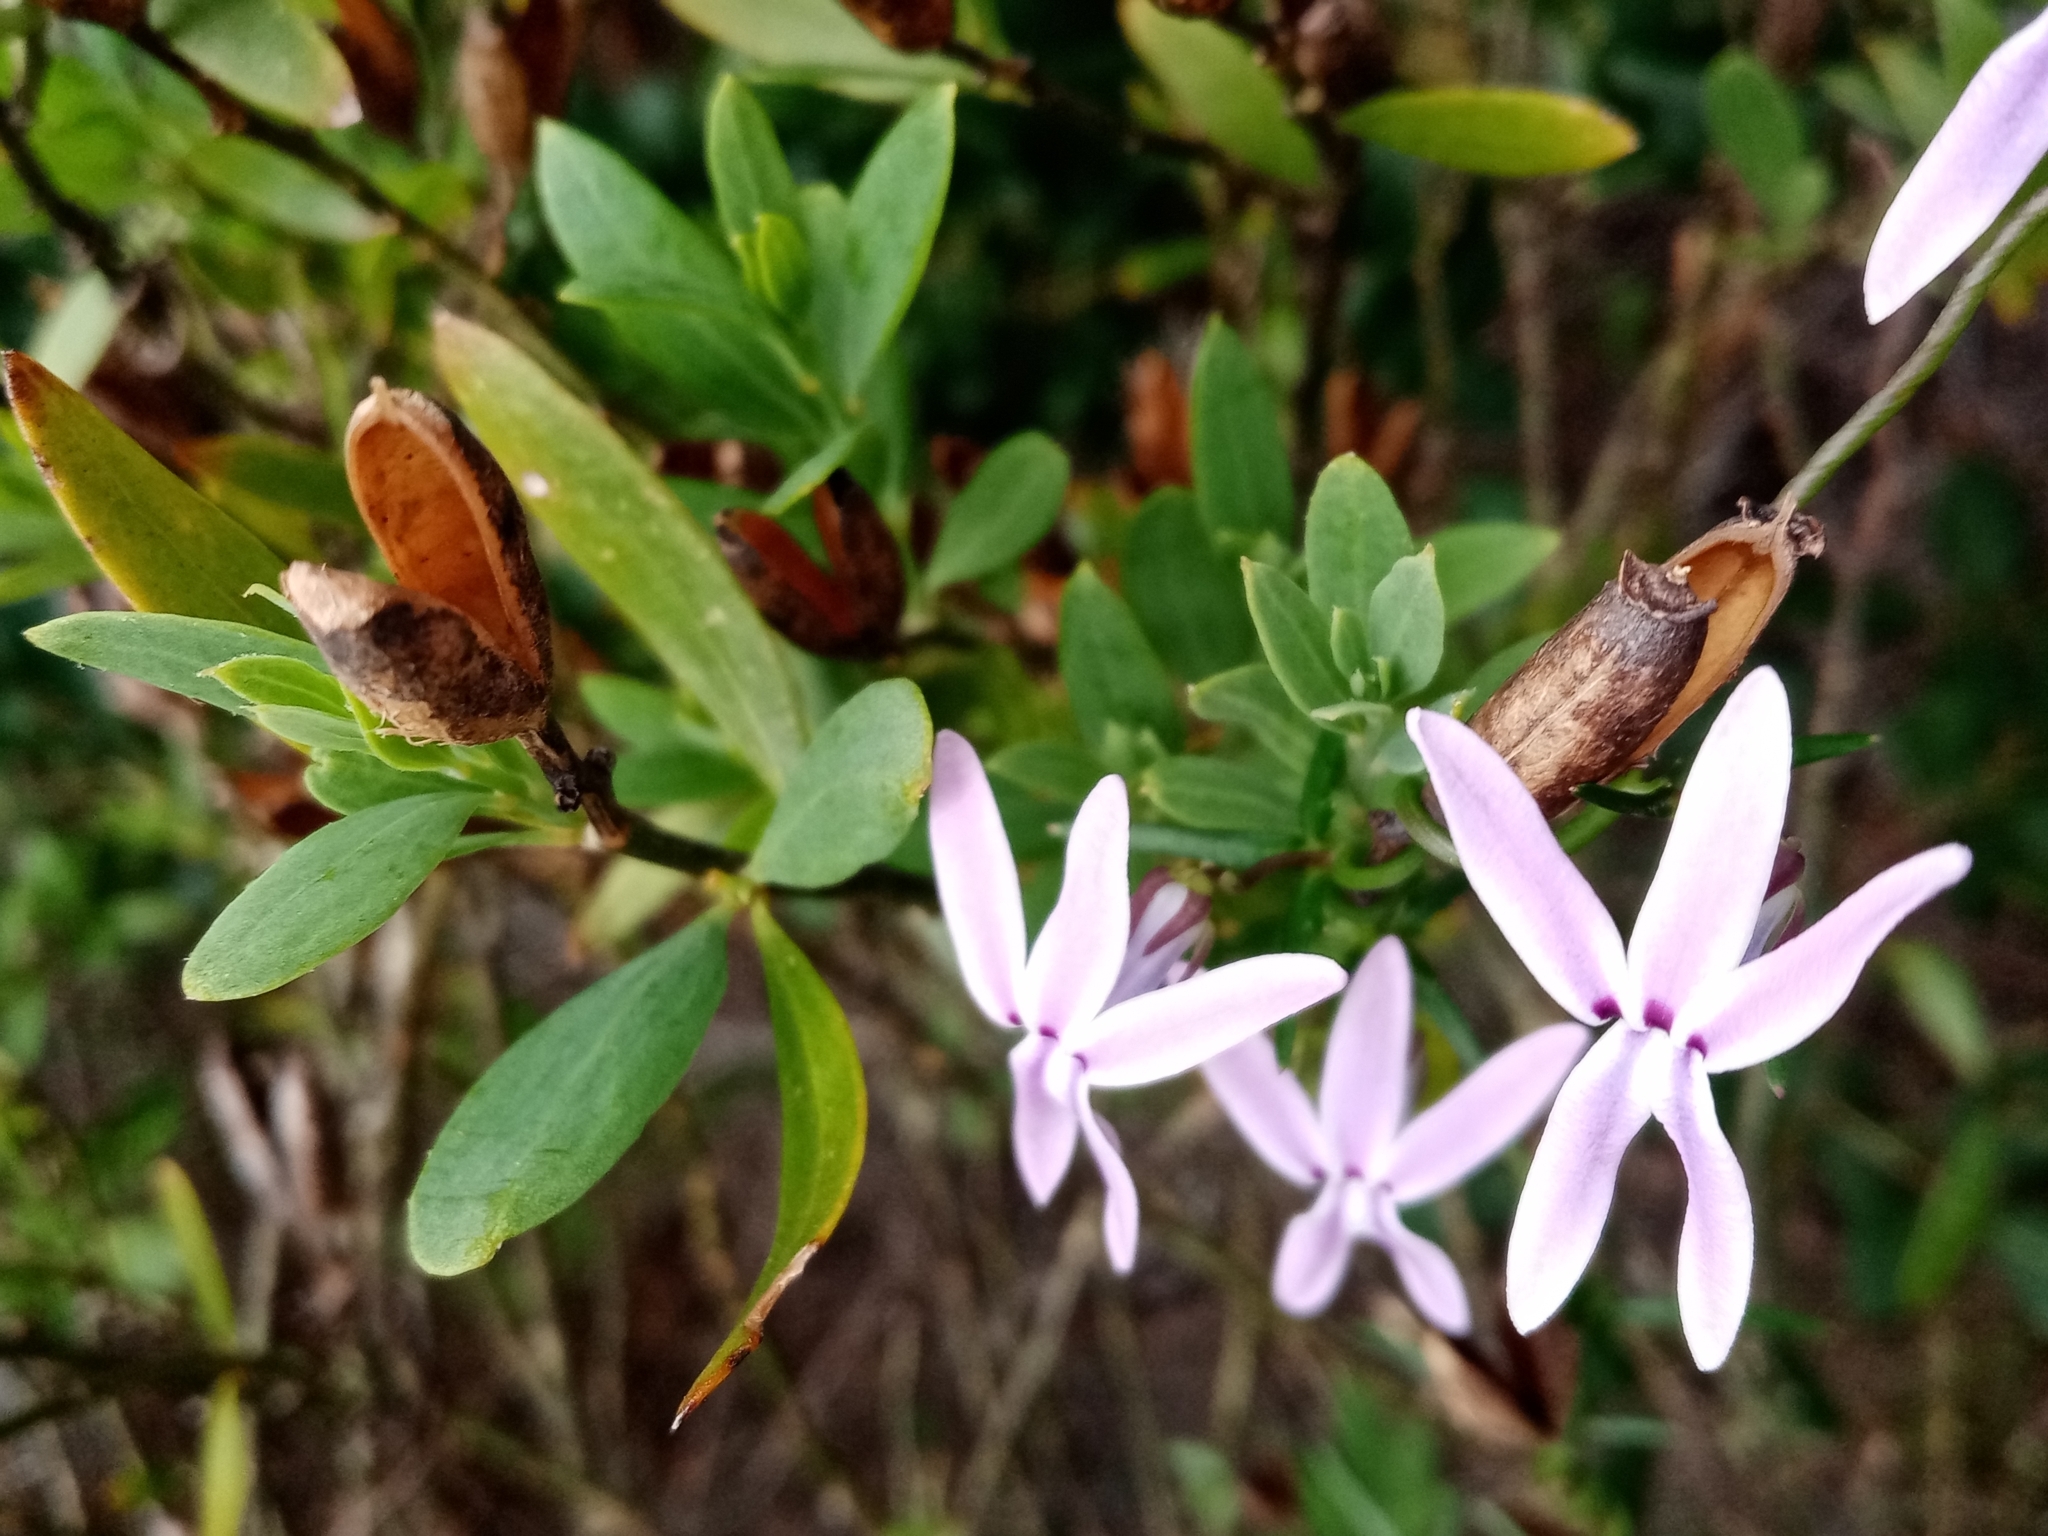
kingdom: Plantae
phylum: Tracheophyta
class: Magnoliopsida
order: Asterales
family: Campanulaceae
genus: Cyphia
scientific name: Cyphia volubilis
